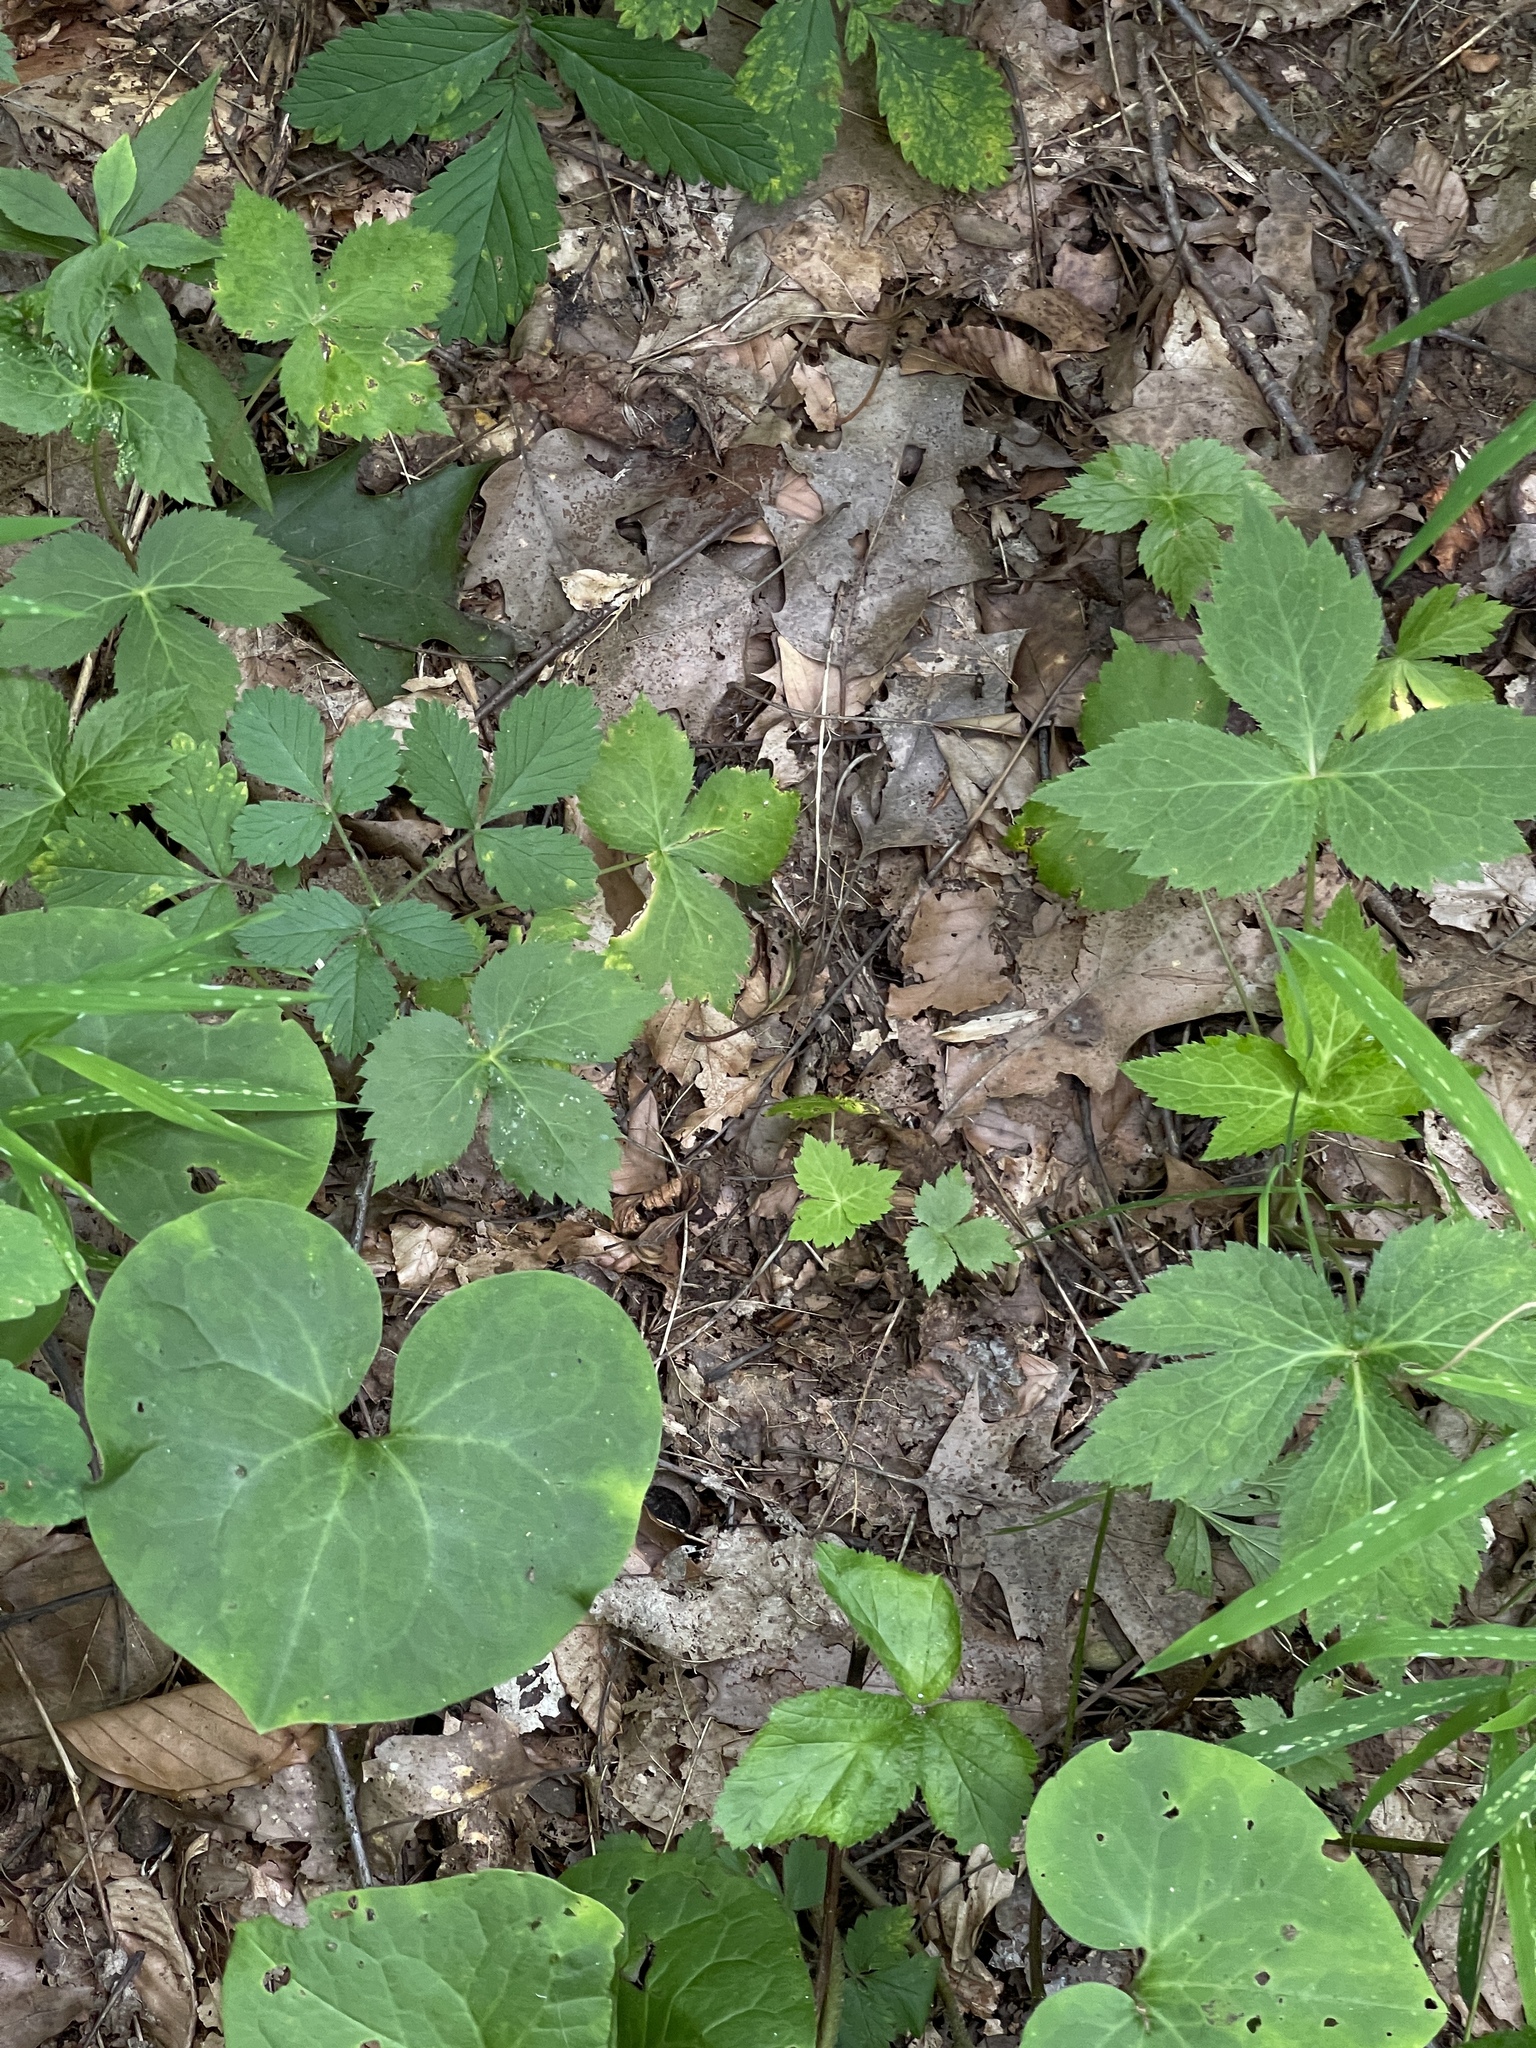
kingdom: Plantae
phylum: Tracheophyta
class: Magnoliopsida
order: Piperales
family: Aristolochiaceae
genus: Asarum
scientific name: Asarum canadense
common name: Wild ginger
